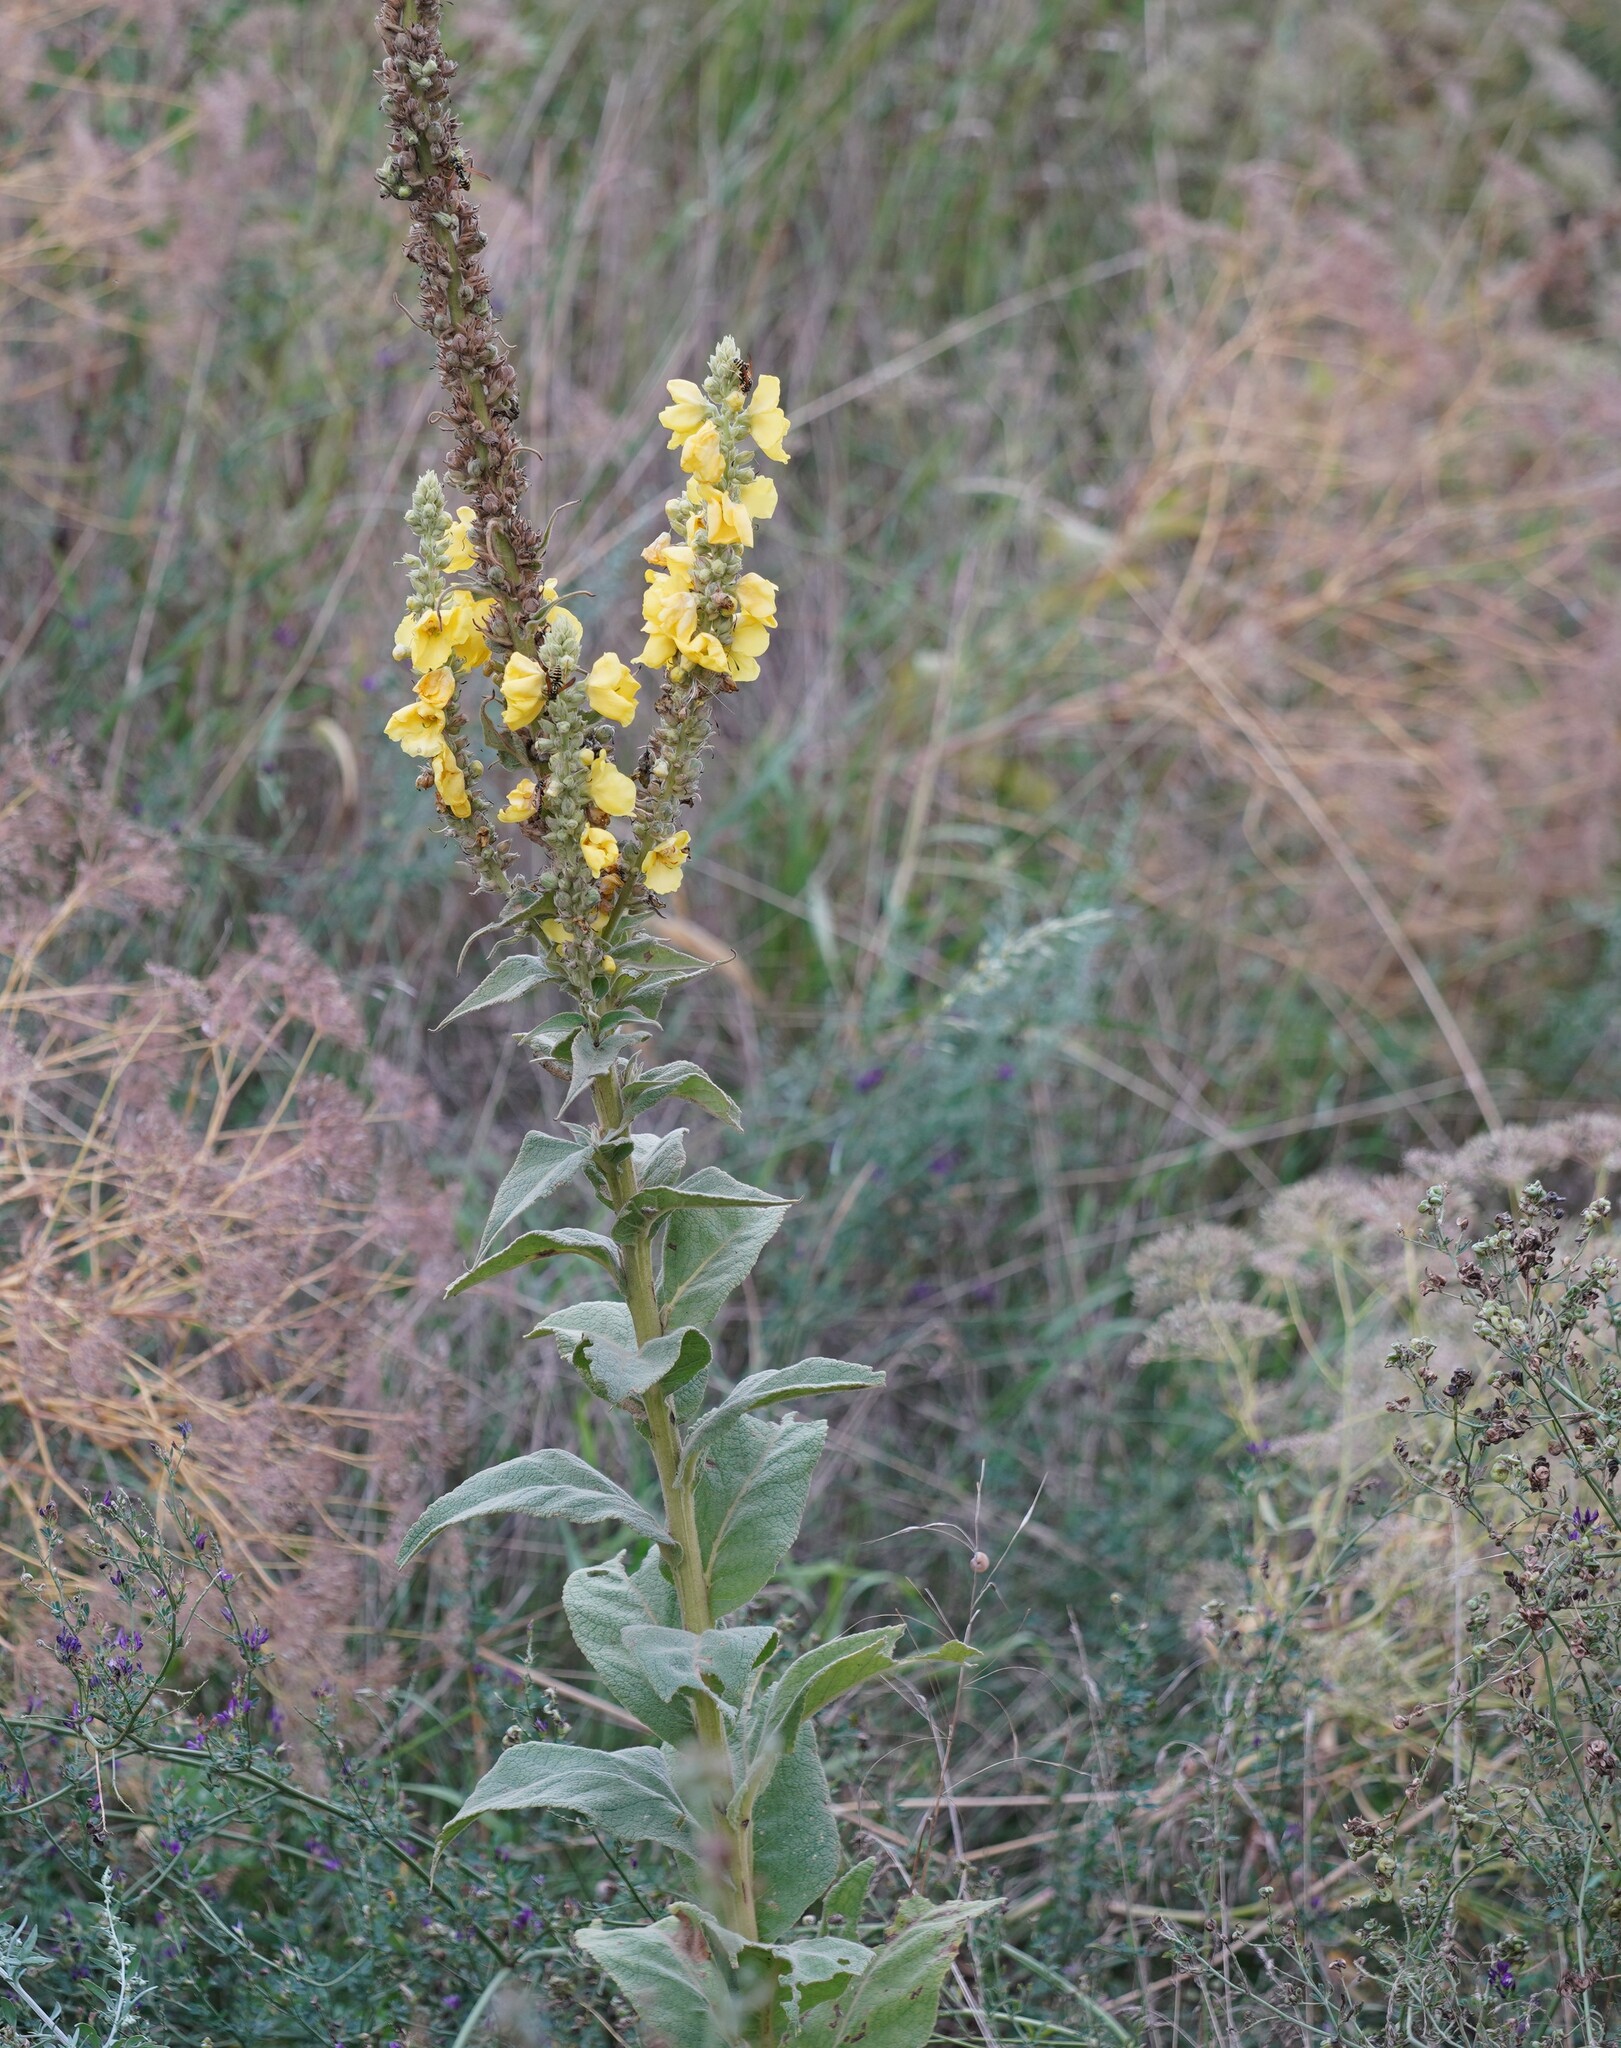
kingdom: Plantae
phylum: Tracheophyta
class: Magnoliopsida
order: Lamiales
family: Scrophulariaceae
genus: Verbascum
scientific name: Verbascum phlomoides
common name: Orange mullein
